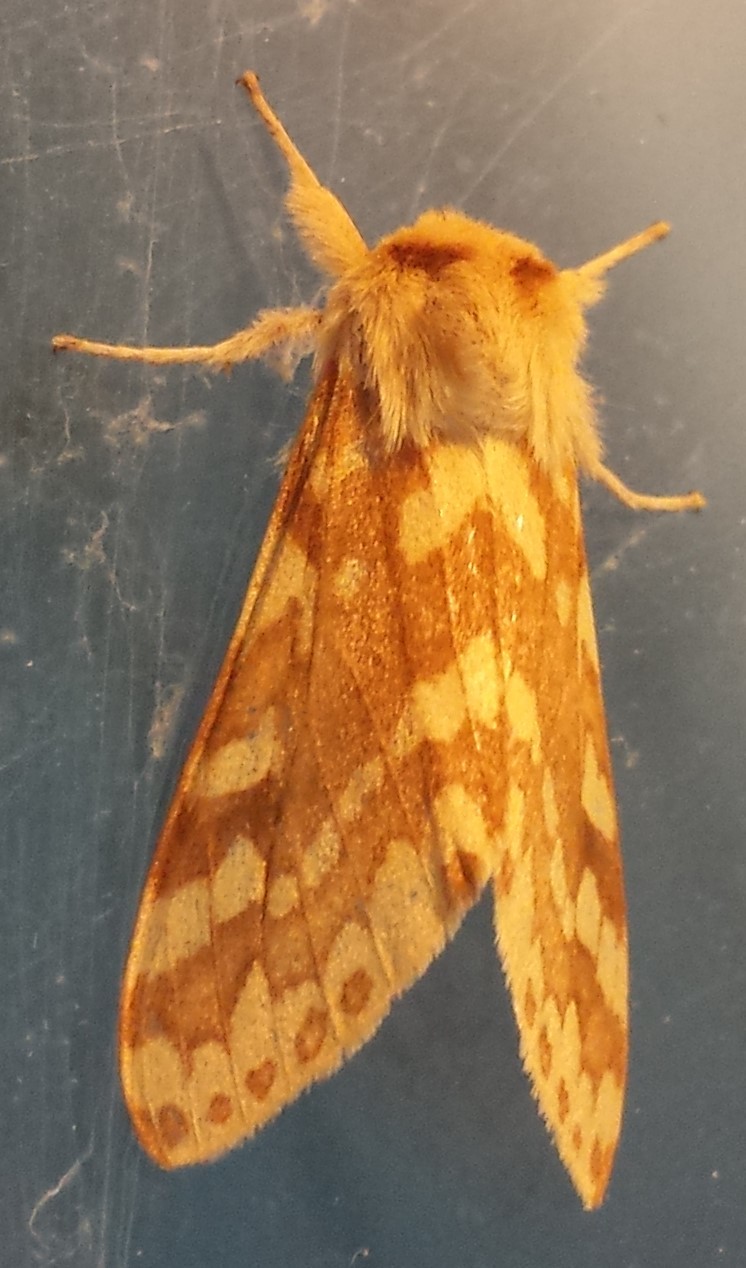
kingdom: Animalia
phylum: Arthropoda
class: Insecta
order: Lepidoptera
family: Erebidae
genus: Lophocampa
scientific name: Lophocampa maculata
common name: Spotted tussock moth
